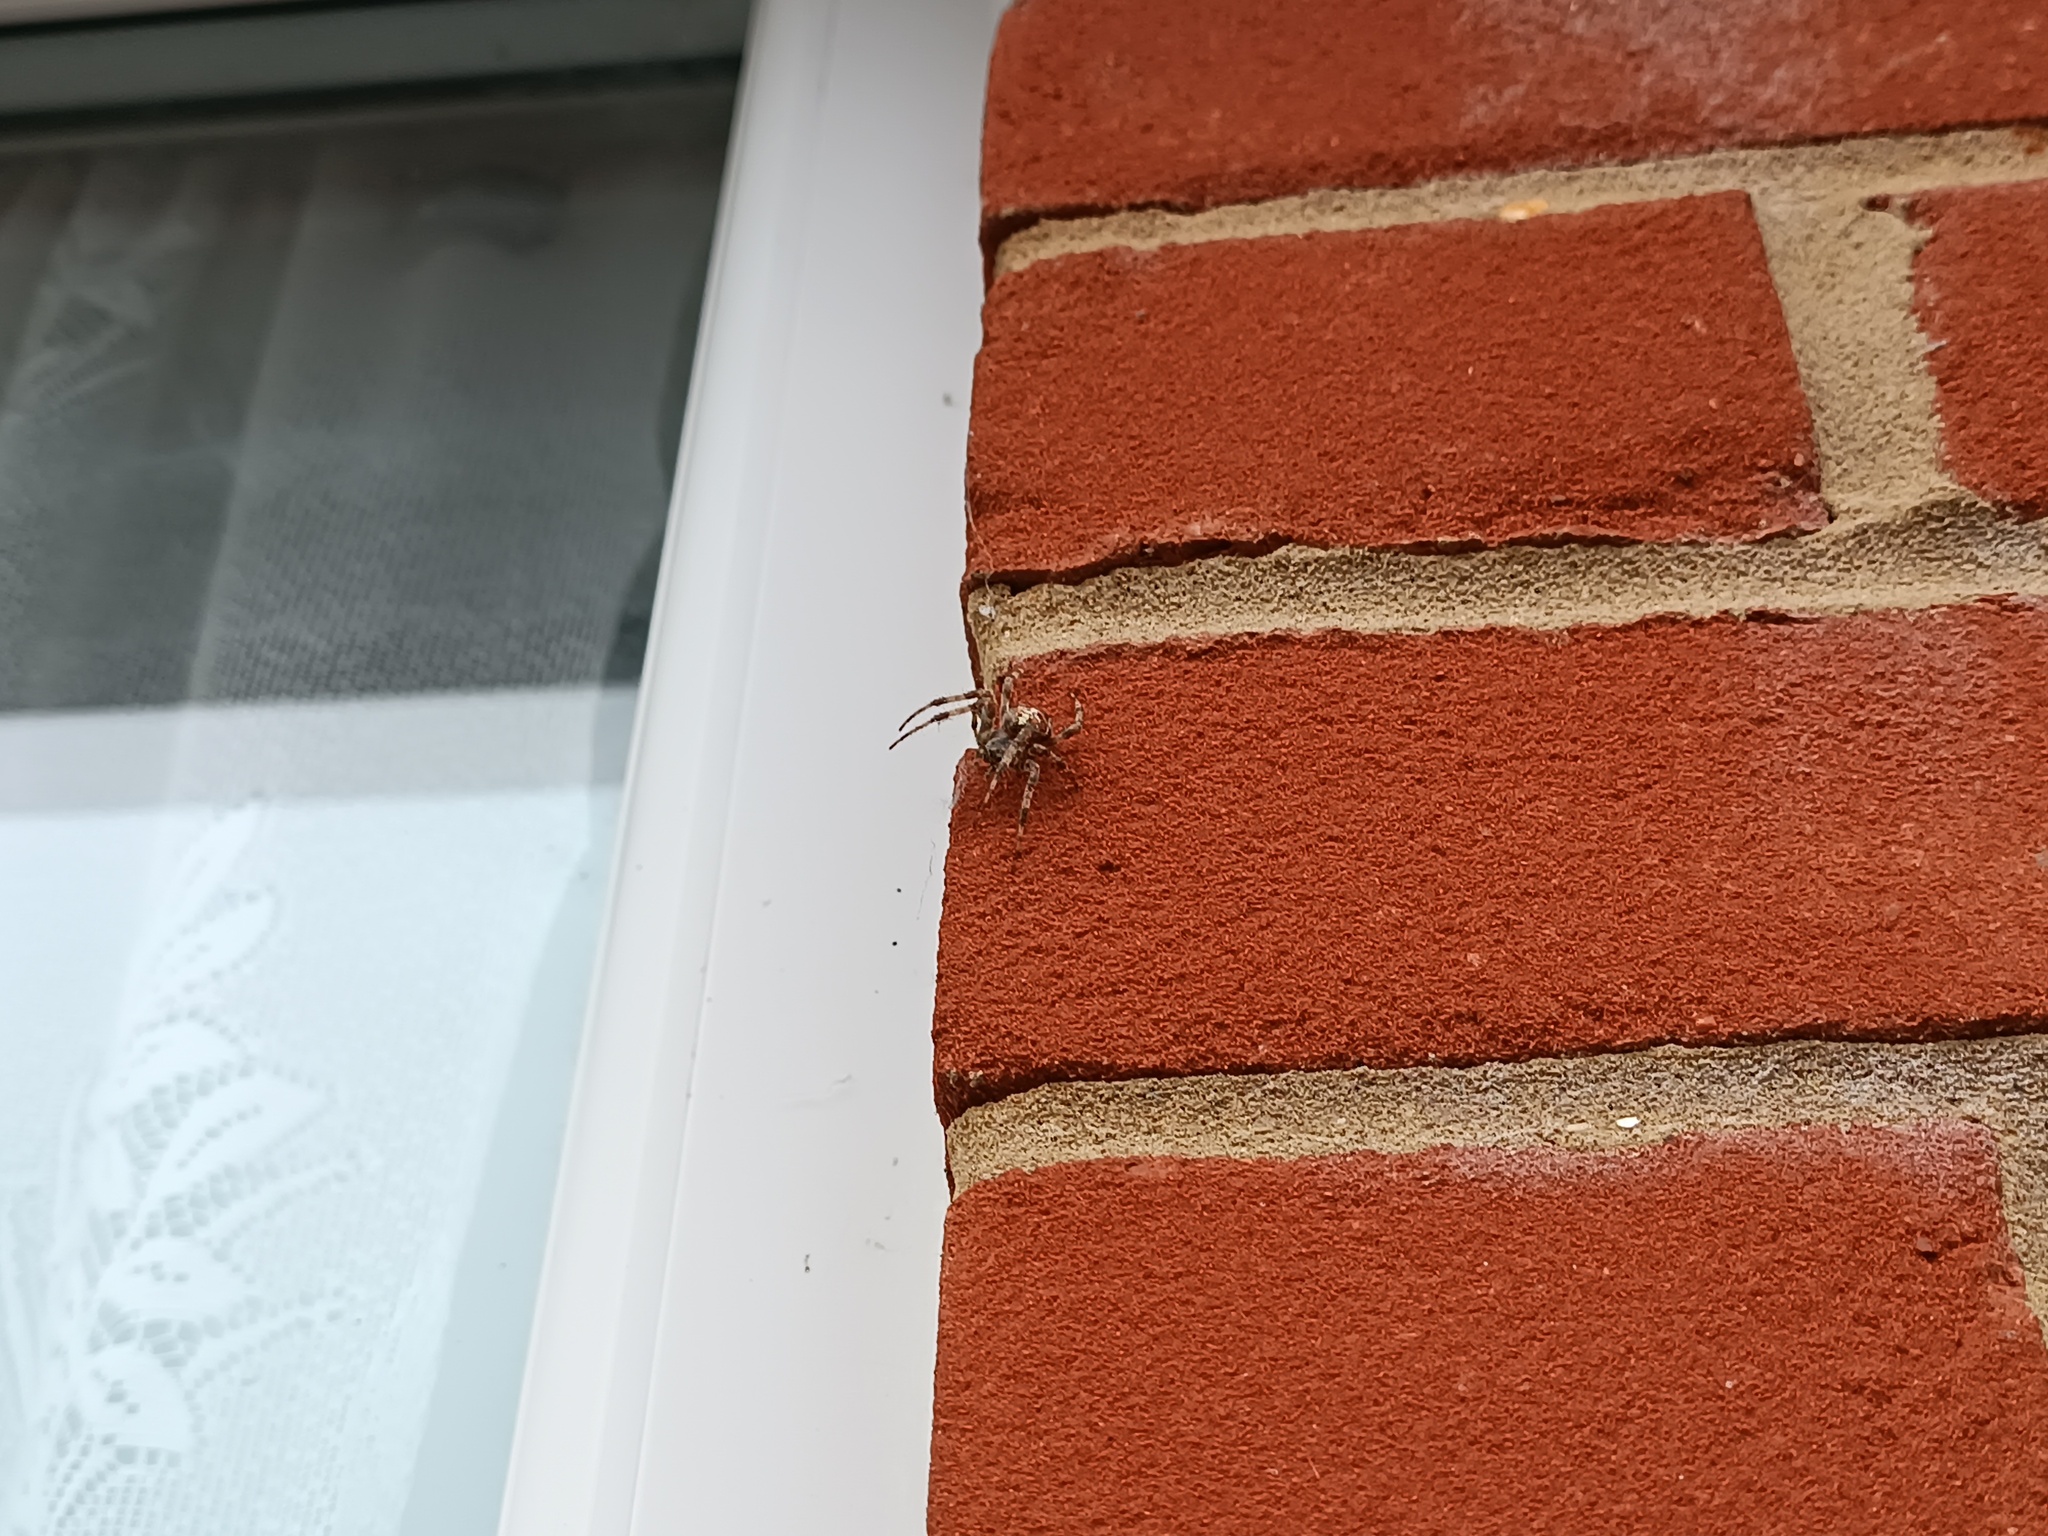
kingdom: Animalia
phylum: Arthropoda
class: Arachnida
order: Araneae
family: Araneidae
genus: Araneus
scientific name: Araneus diadematus
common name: Cross orbweaver
